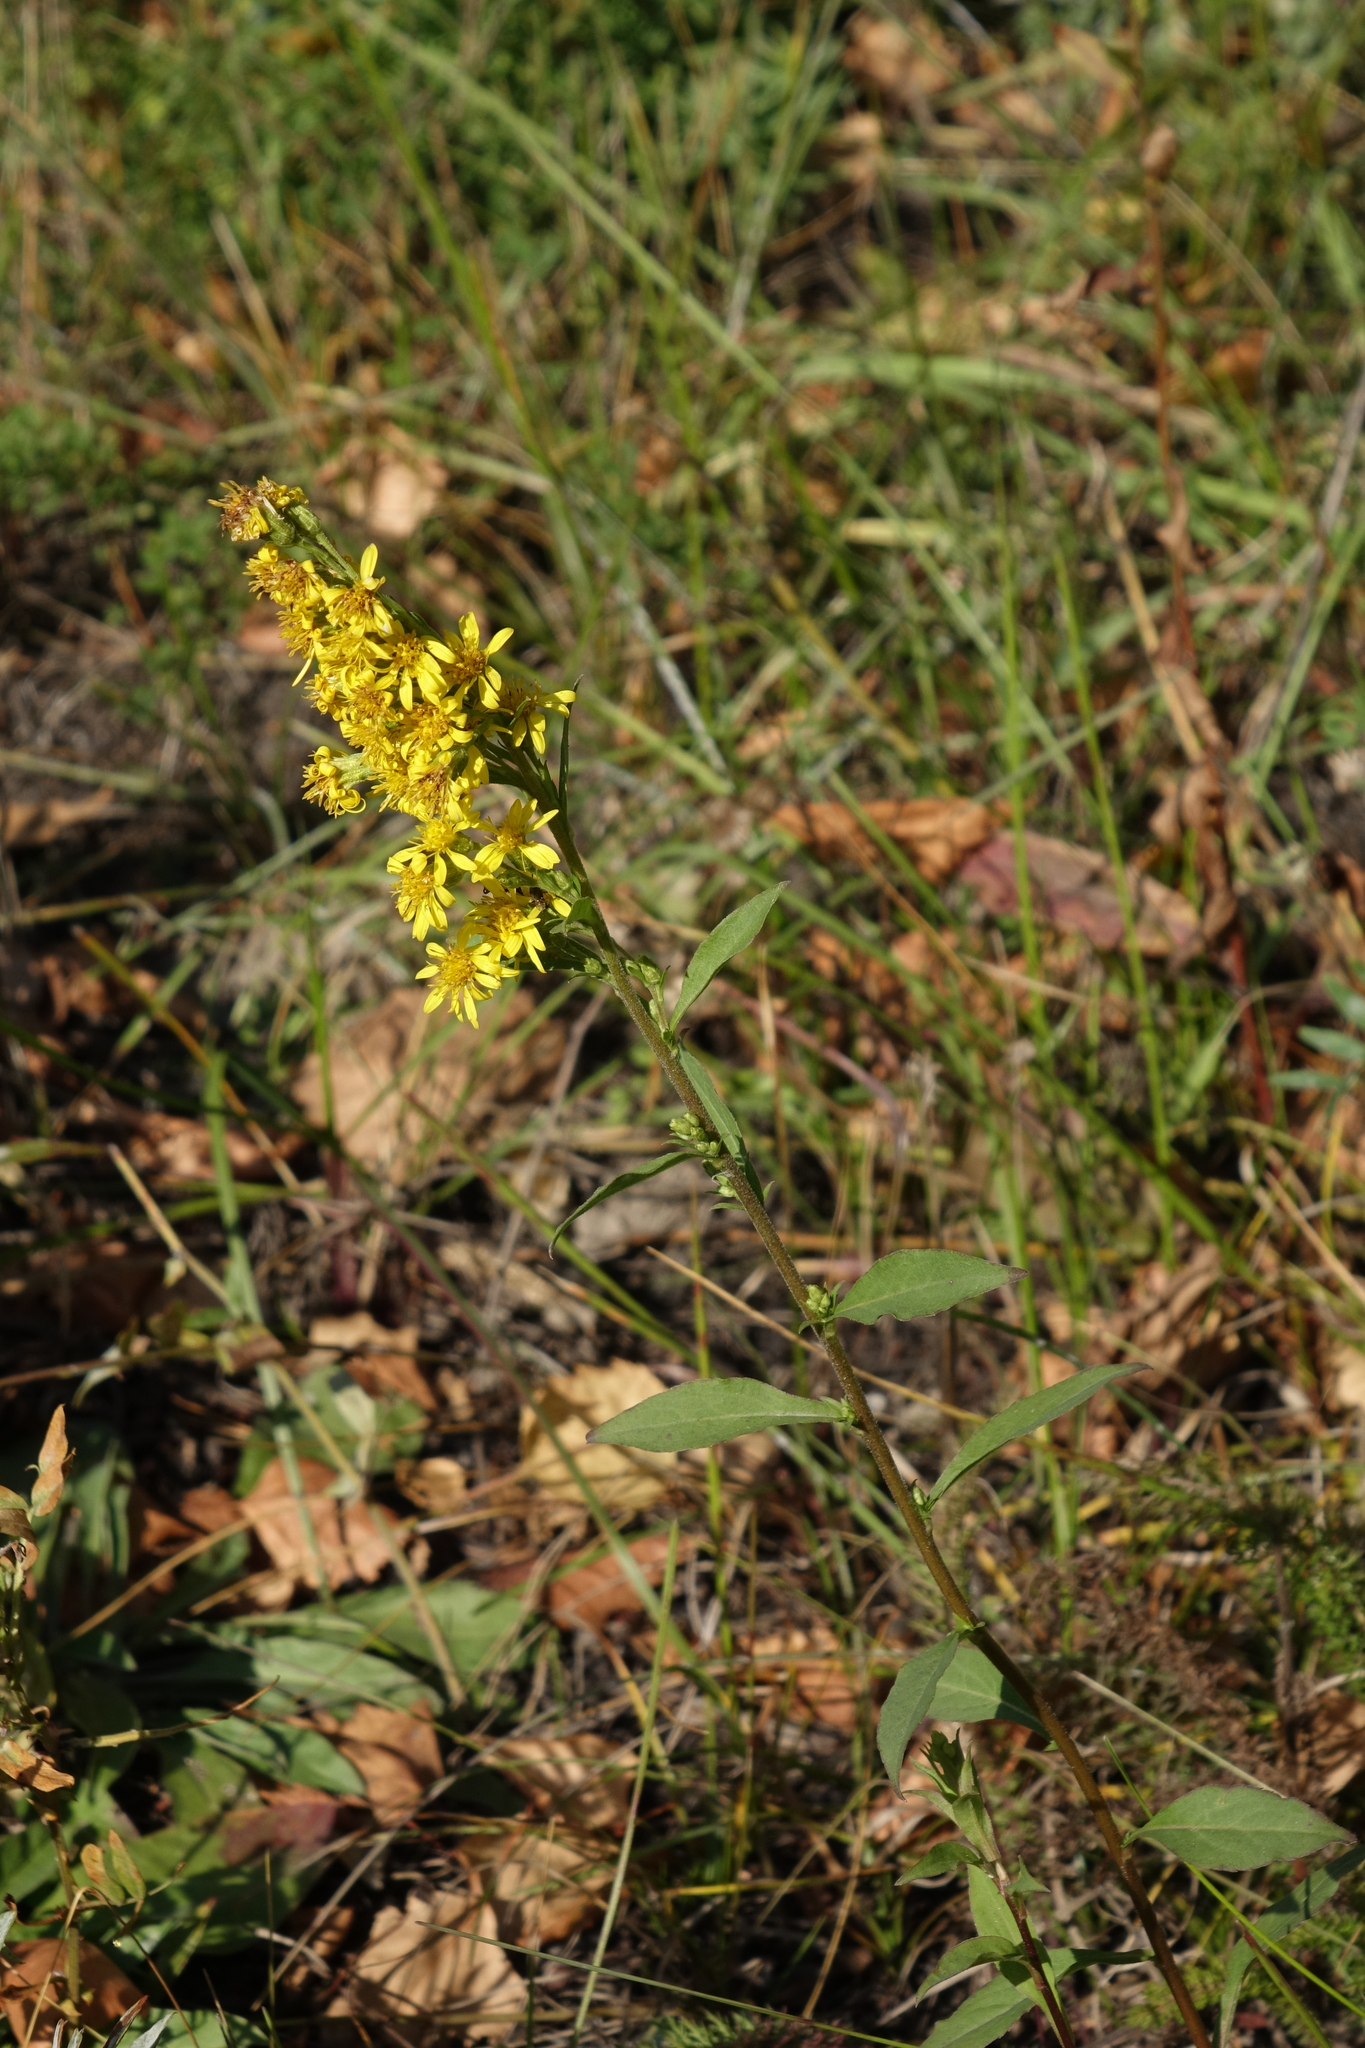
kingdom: Plantae
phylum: Tracheophyta
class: Magnoliopsida
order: Asterales
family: Asteraceae
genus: Solidago
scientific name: Solidago virgaurea
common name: Goldenrod
